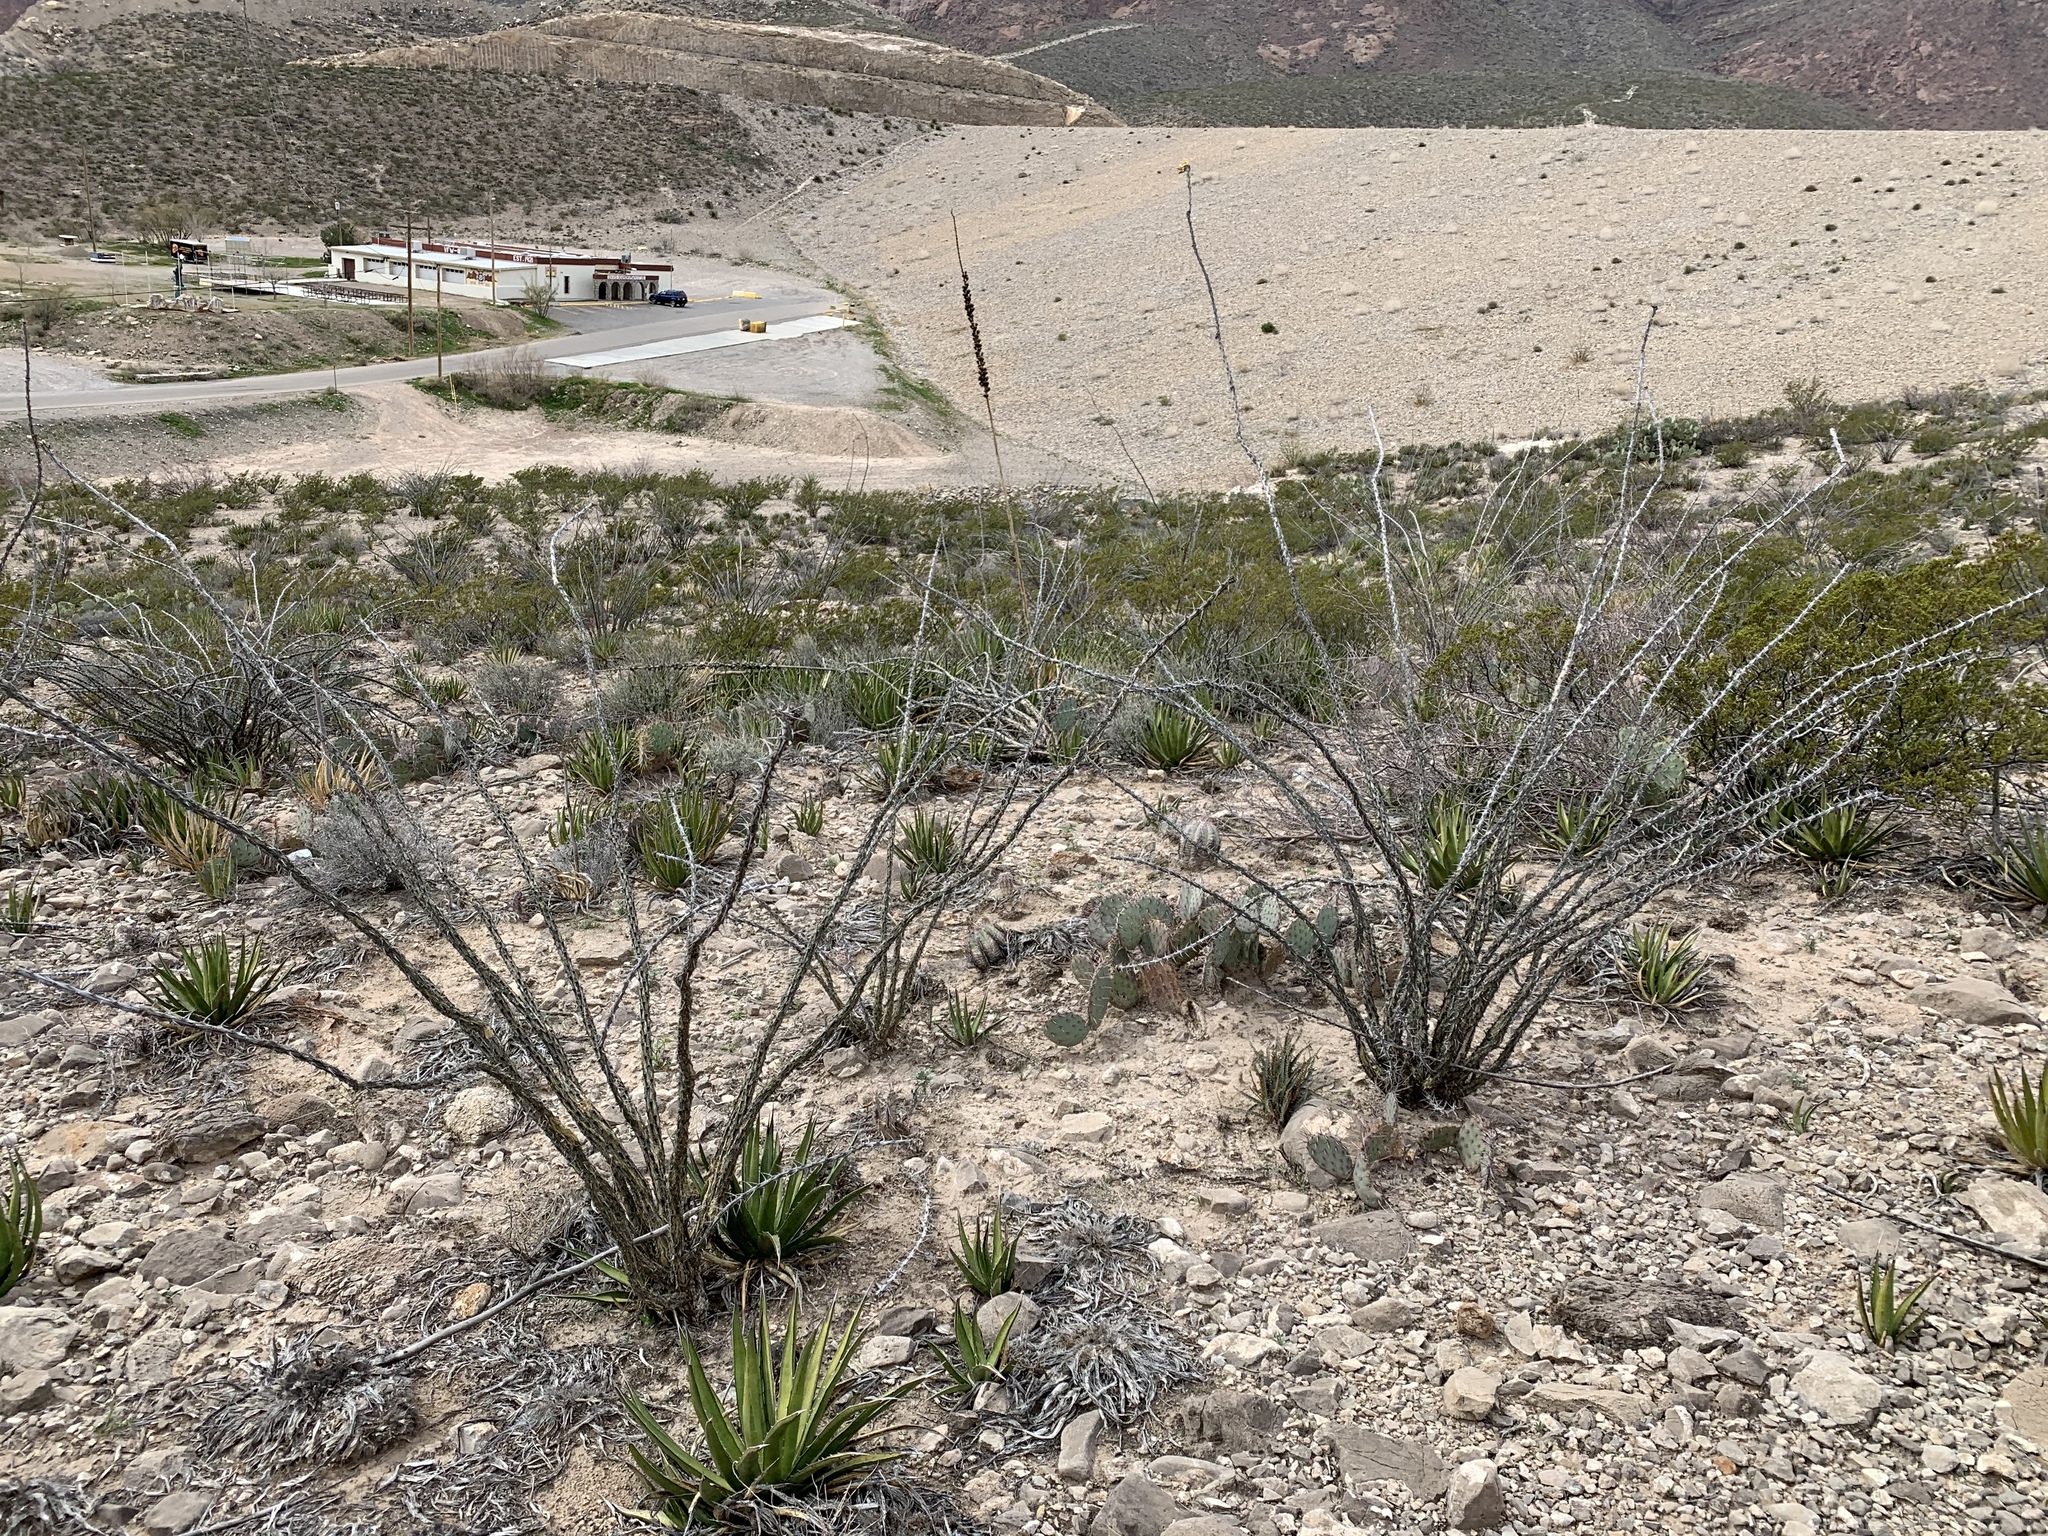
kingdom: Plantae
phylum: Tracheophyta
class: Magnoliopsida
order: Ericales
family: Fouquieriaceae
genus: Fouquieria
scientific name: Fouquieria splendens
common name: Vine-cactus
